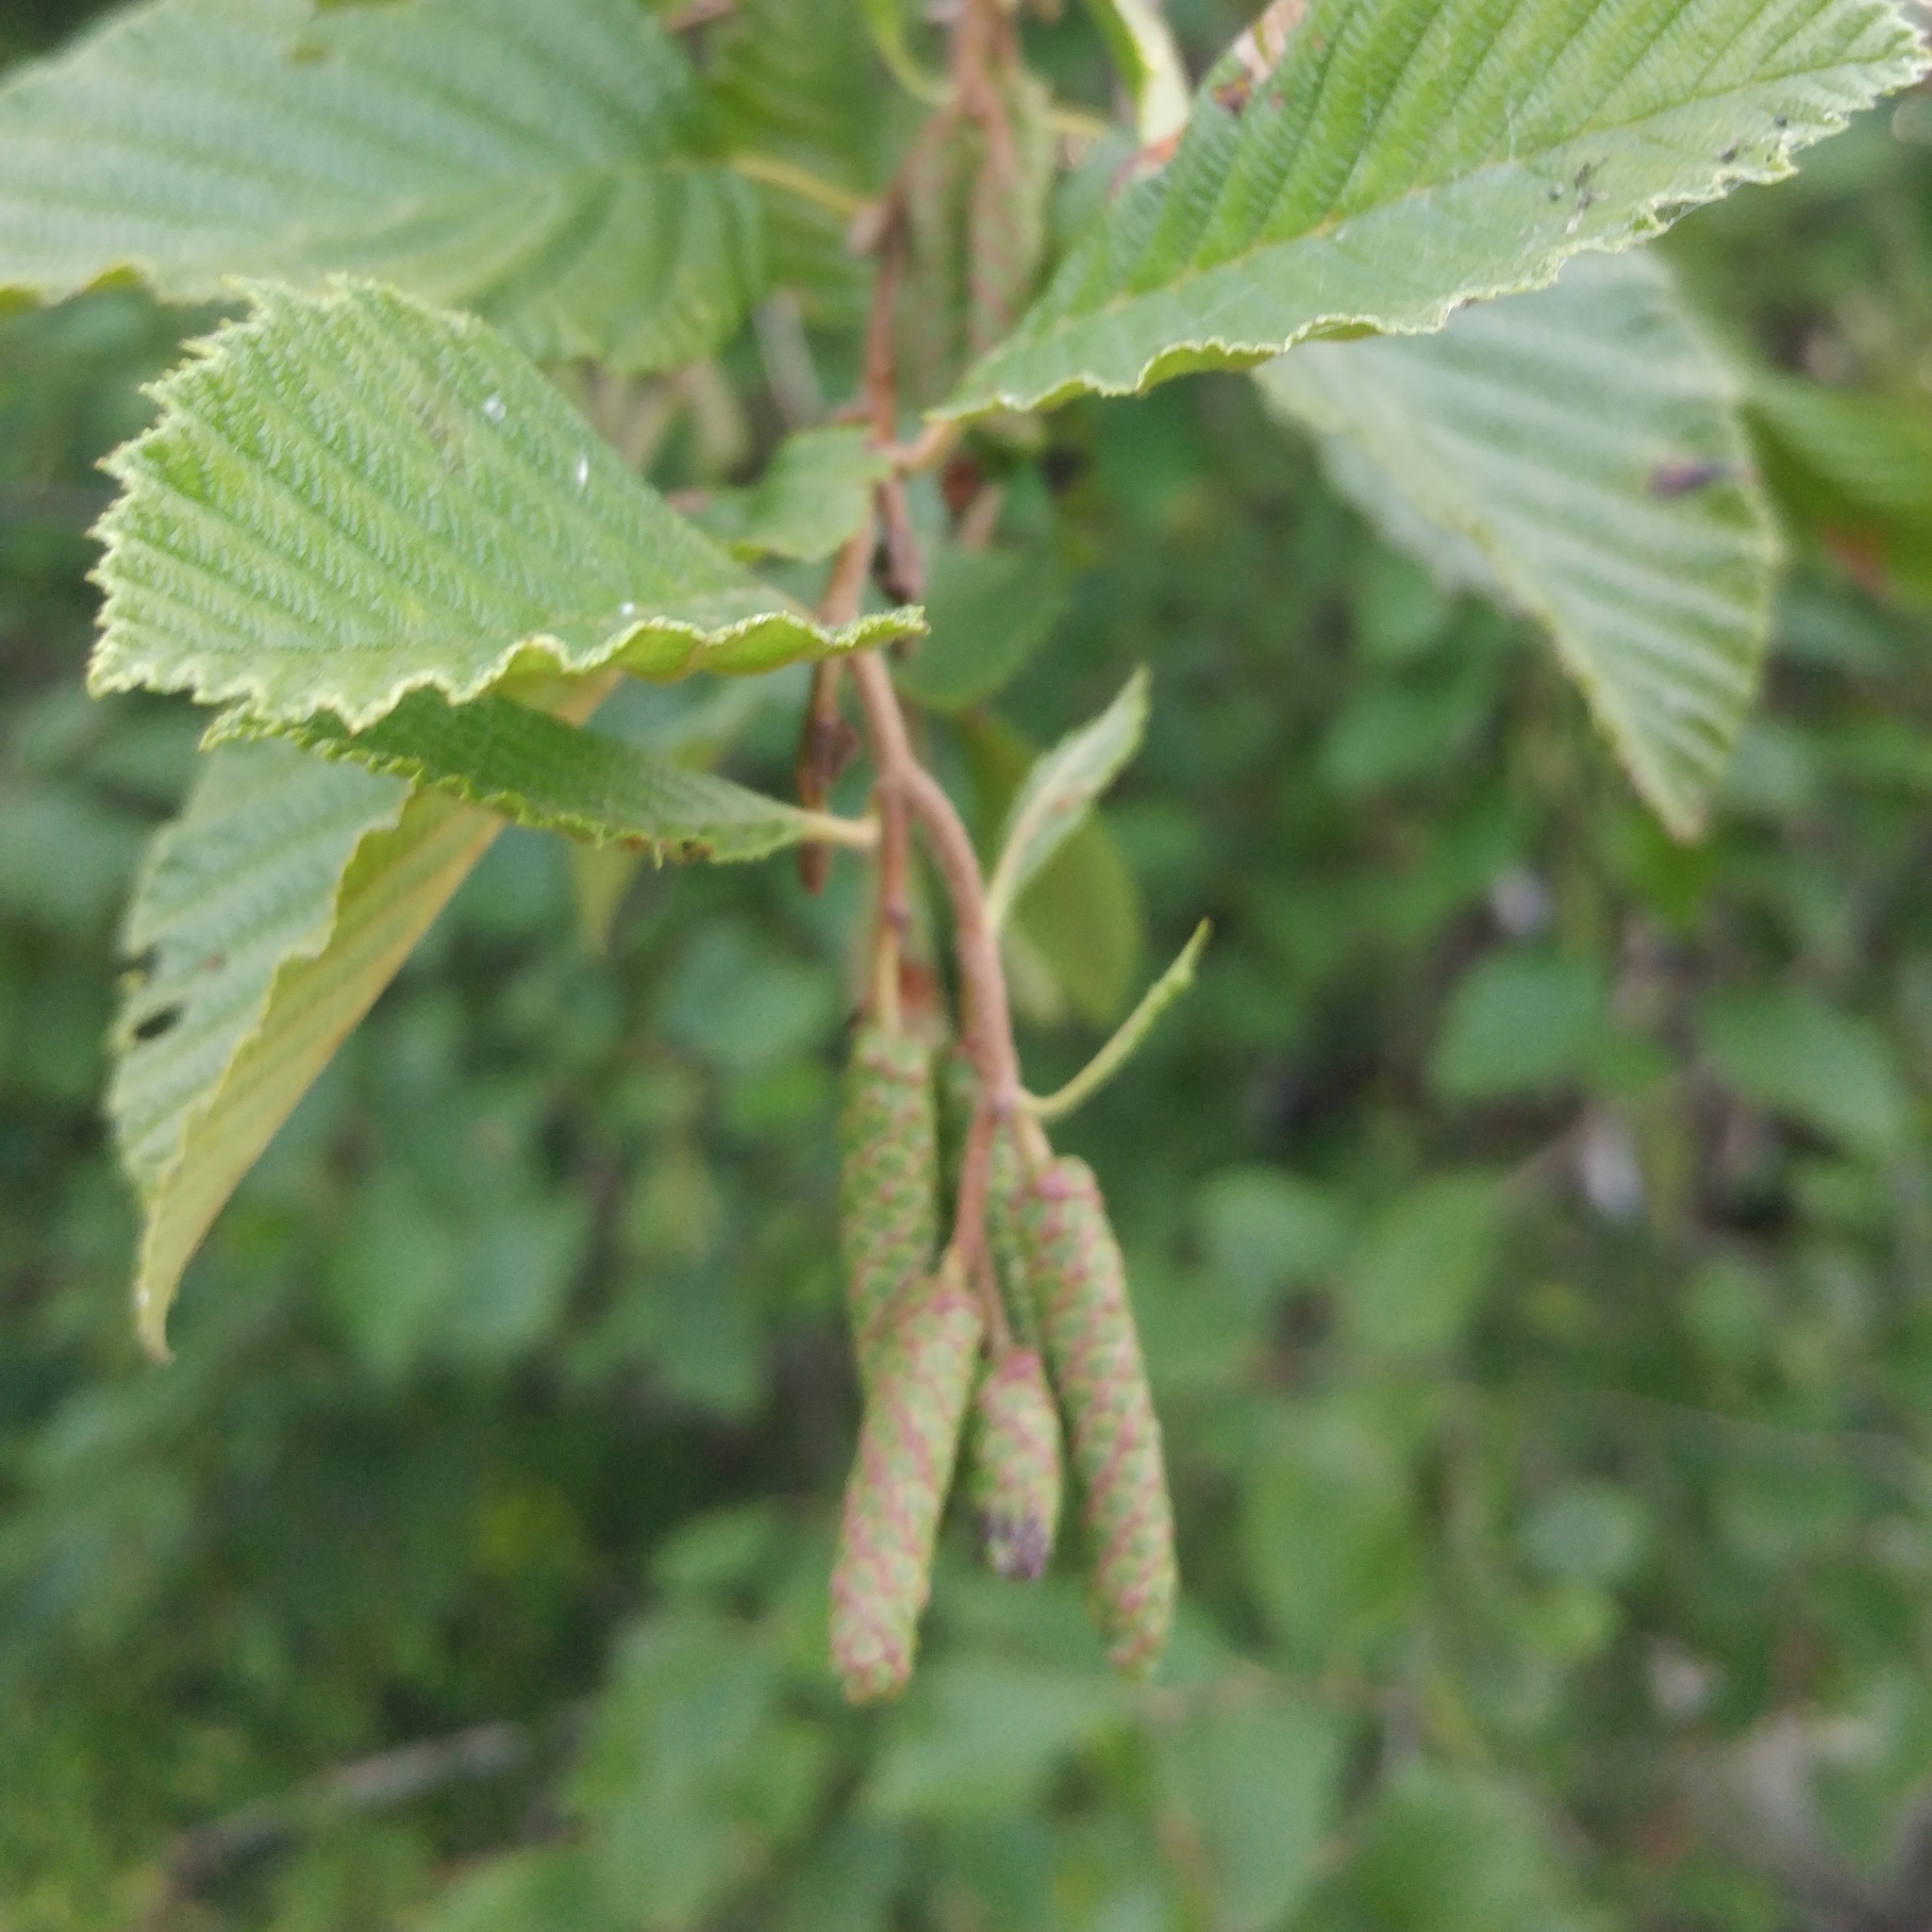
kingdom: Plantae
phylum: Tracheophyta
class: Magnoliopsida
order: Fagales
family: Betulaceae
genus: Alnus
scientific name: Alnus incana
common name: Grey alder
